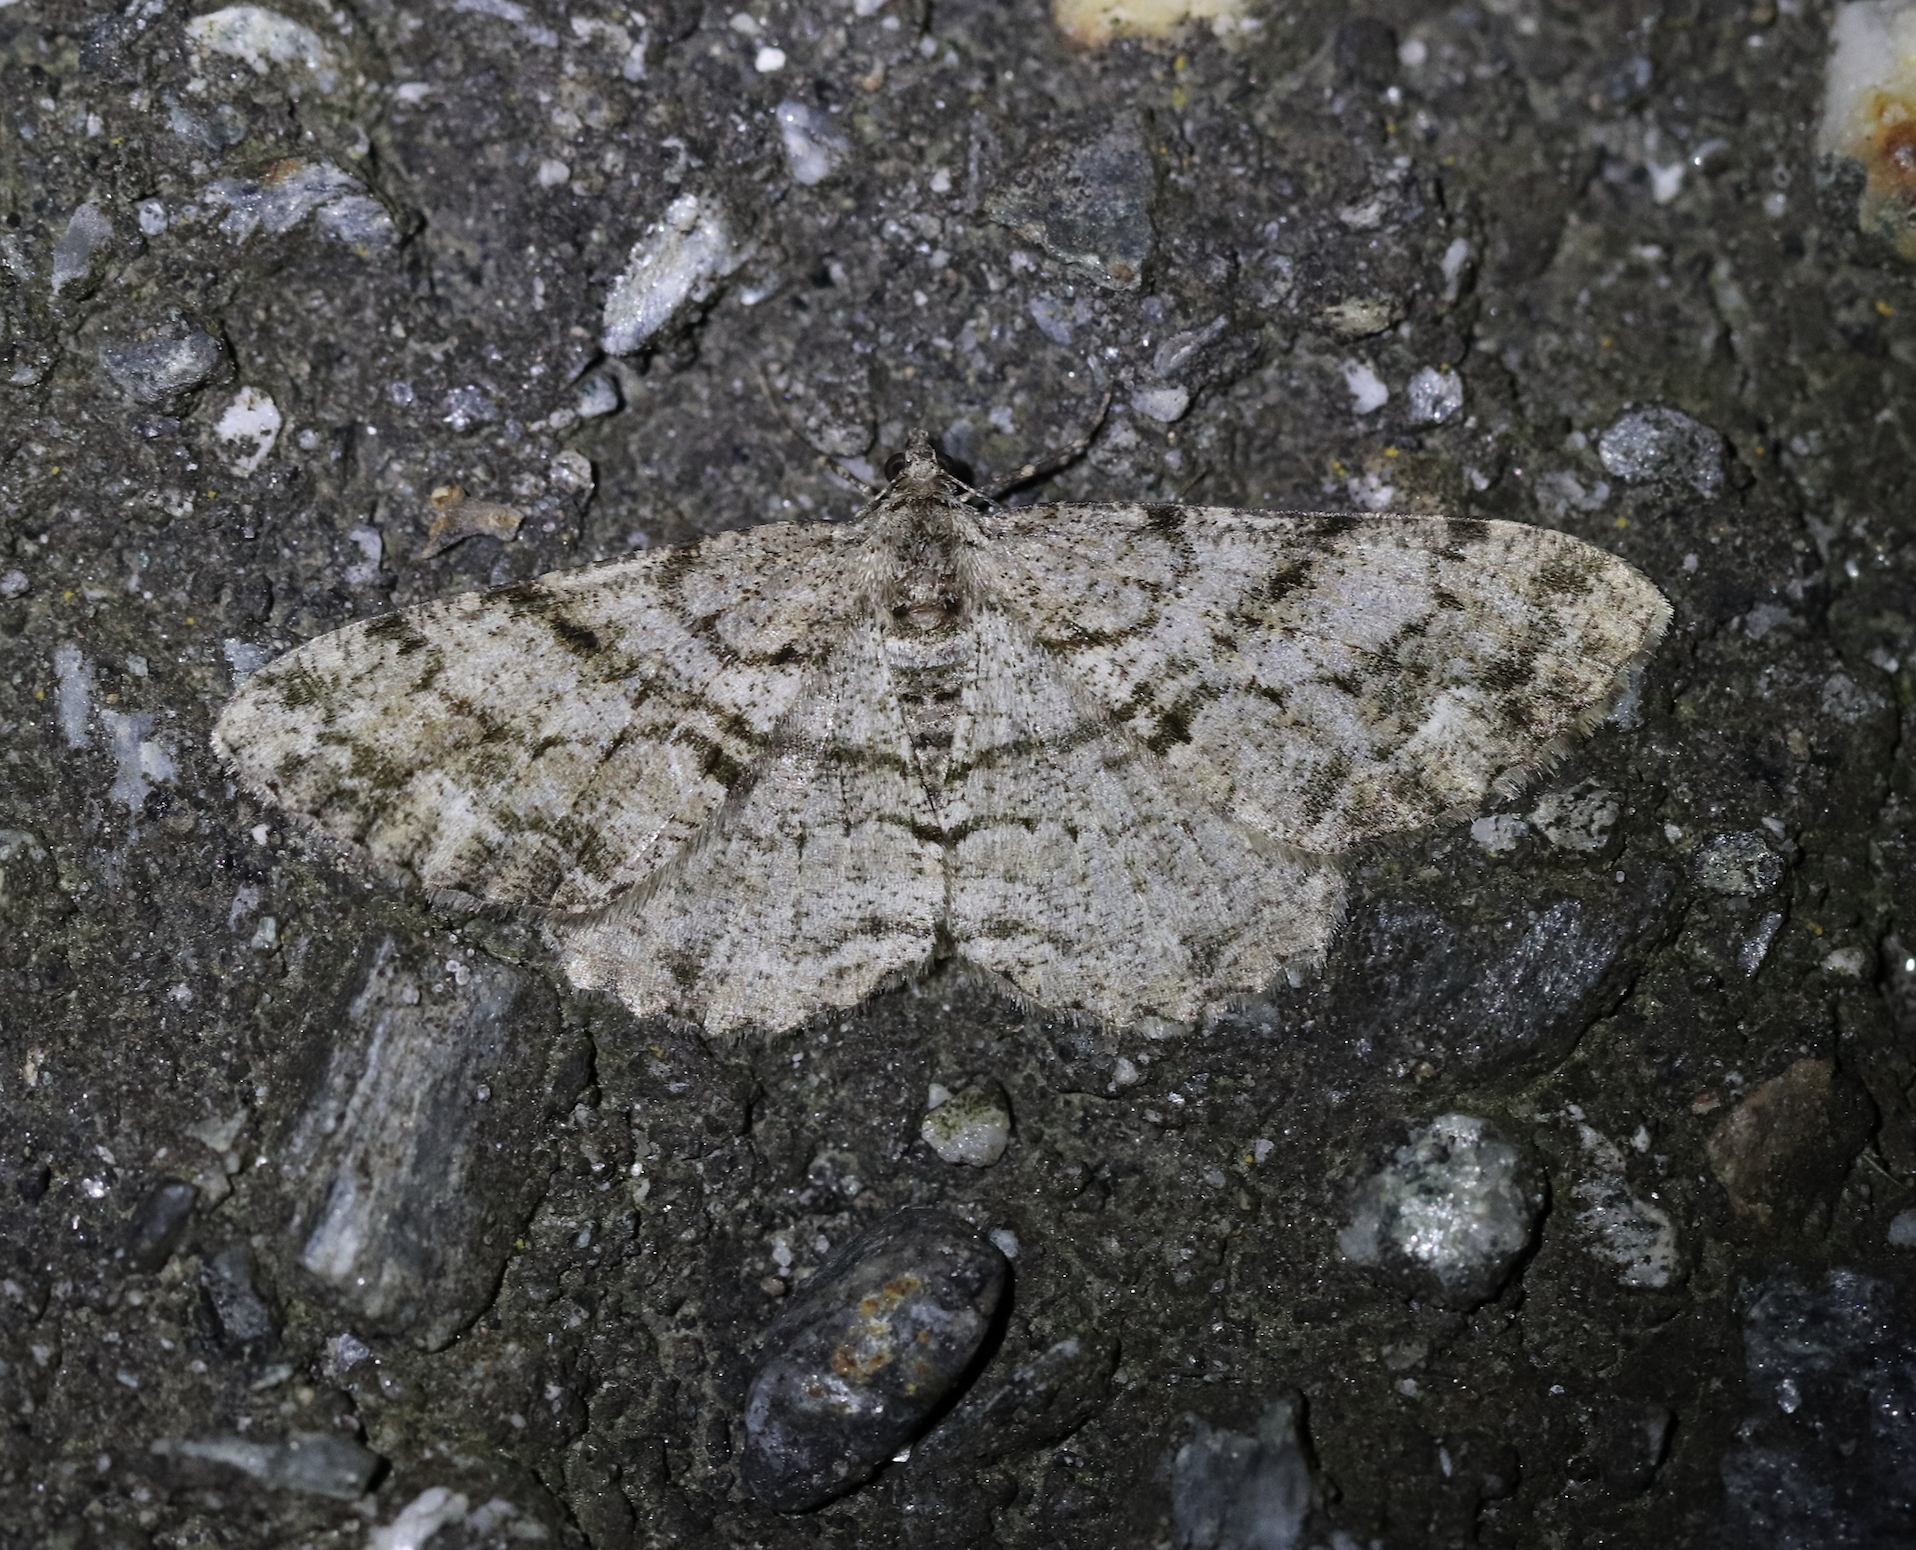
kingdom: Animalia
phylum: Arthropoda
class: Insecta
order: Lepidoptera
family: Geometridae
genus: Peribatodes
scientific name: Peribatodes secundaria
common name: Feathered beauty
